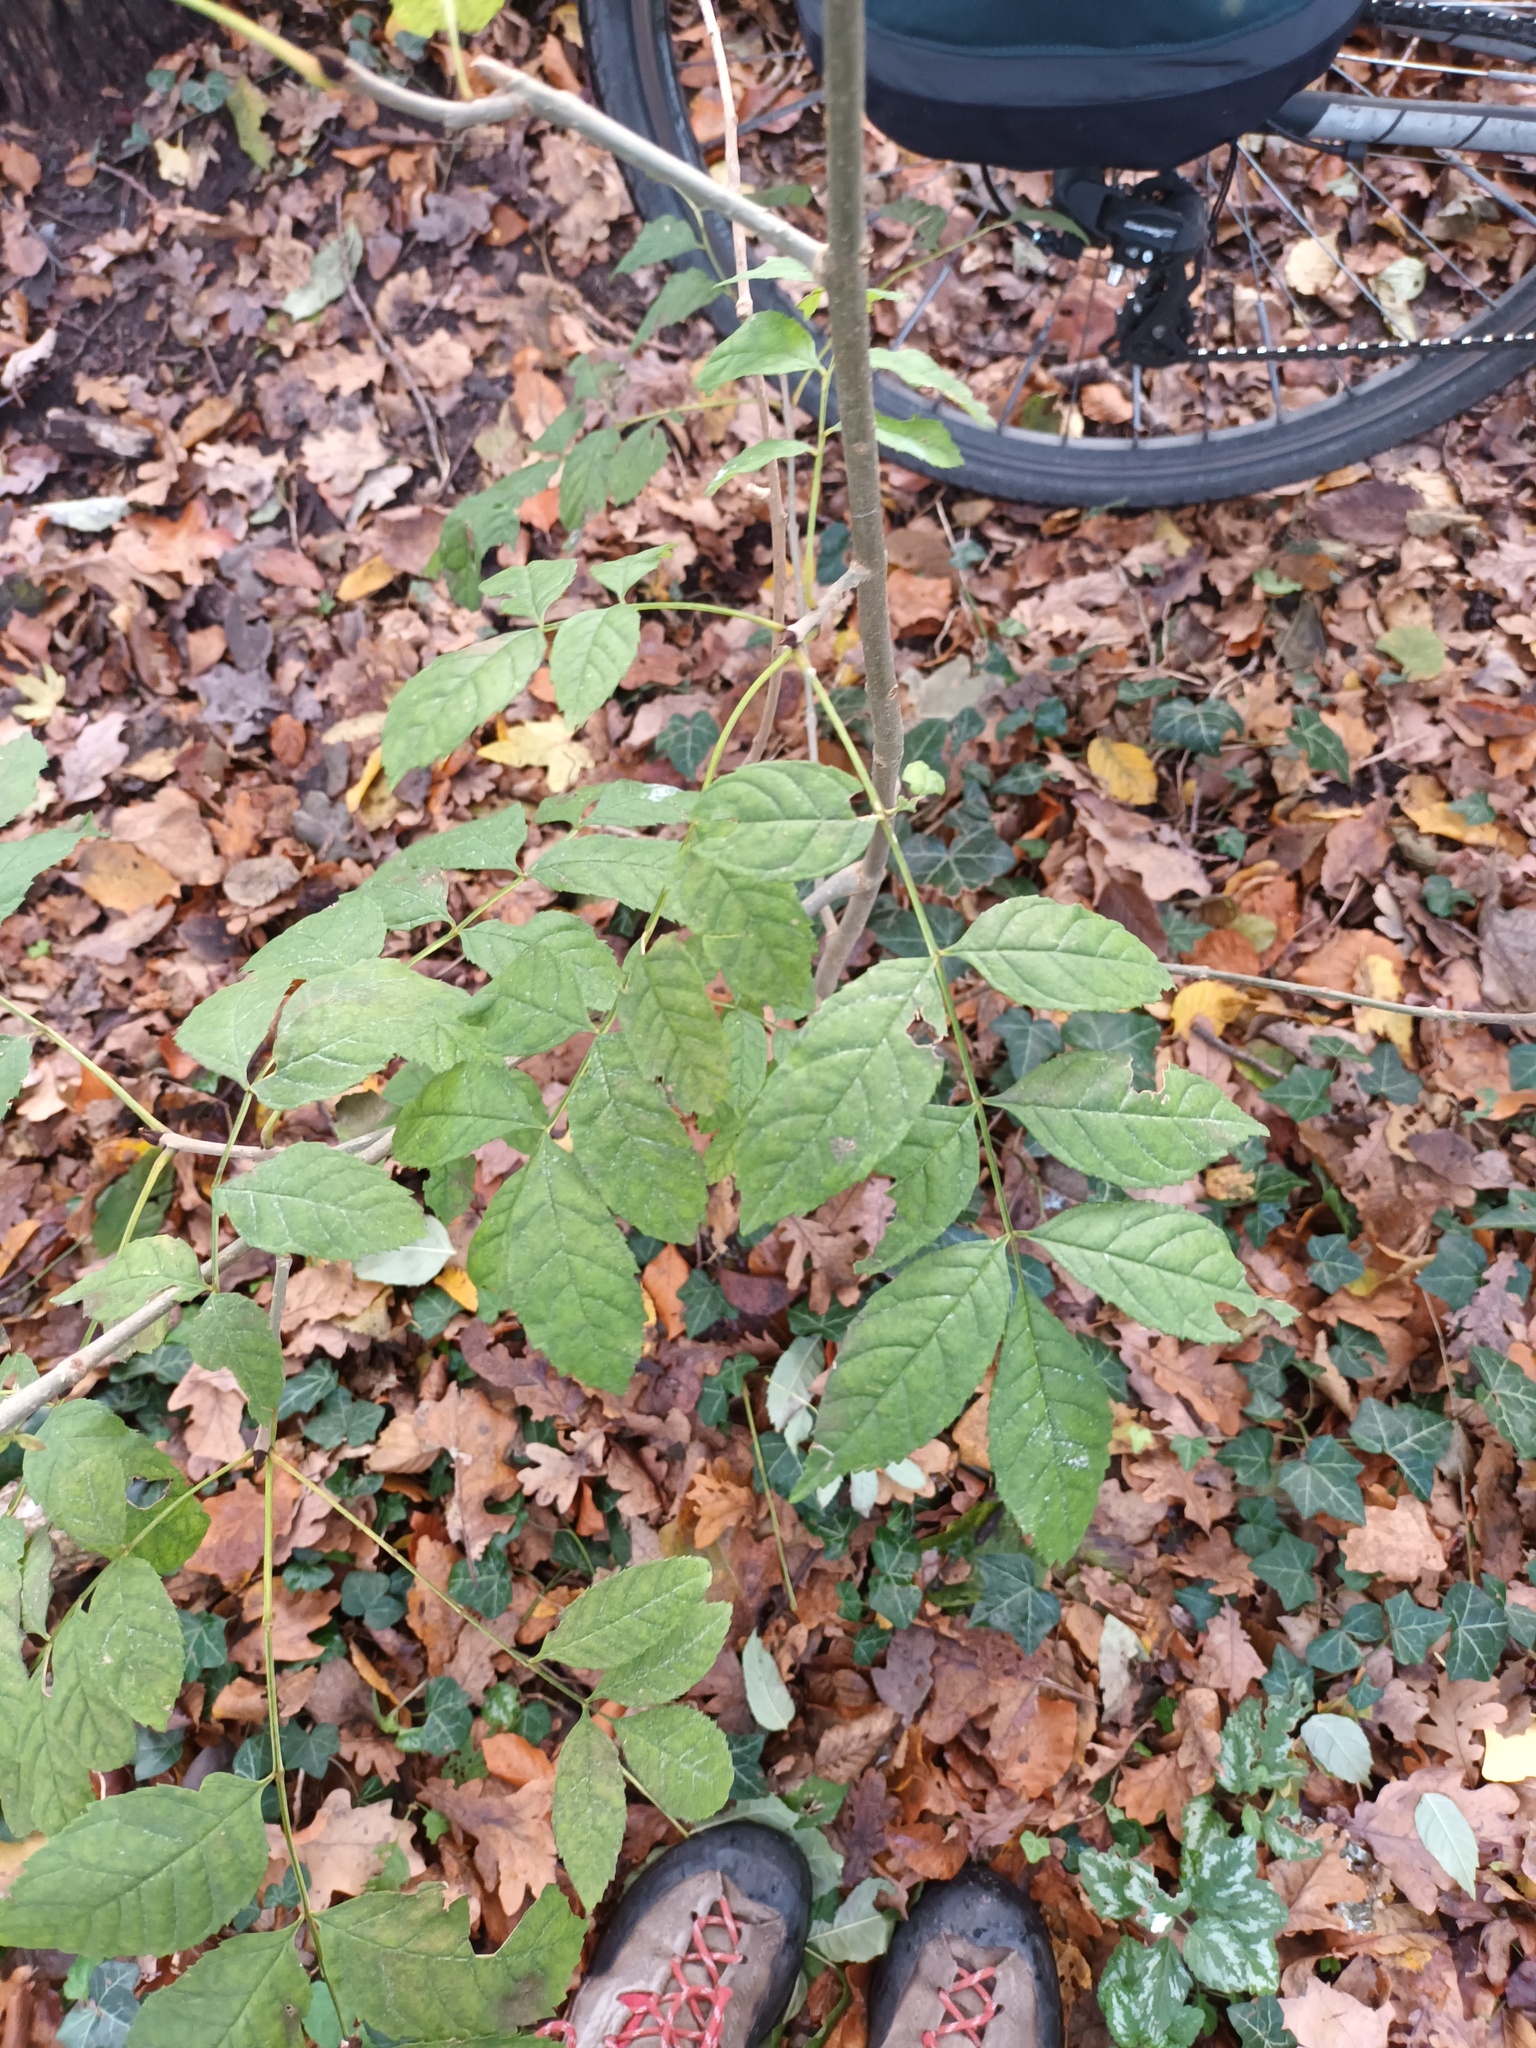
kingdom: Plantae
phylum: Tracheophyta
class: Magnoliopsida
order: Lamiales
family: Oleaceae
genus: Fraxinus
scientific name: Fraxinus excelsior
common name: European ash
